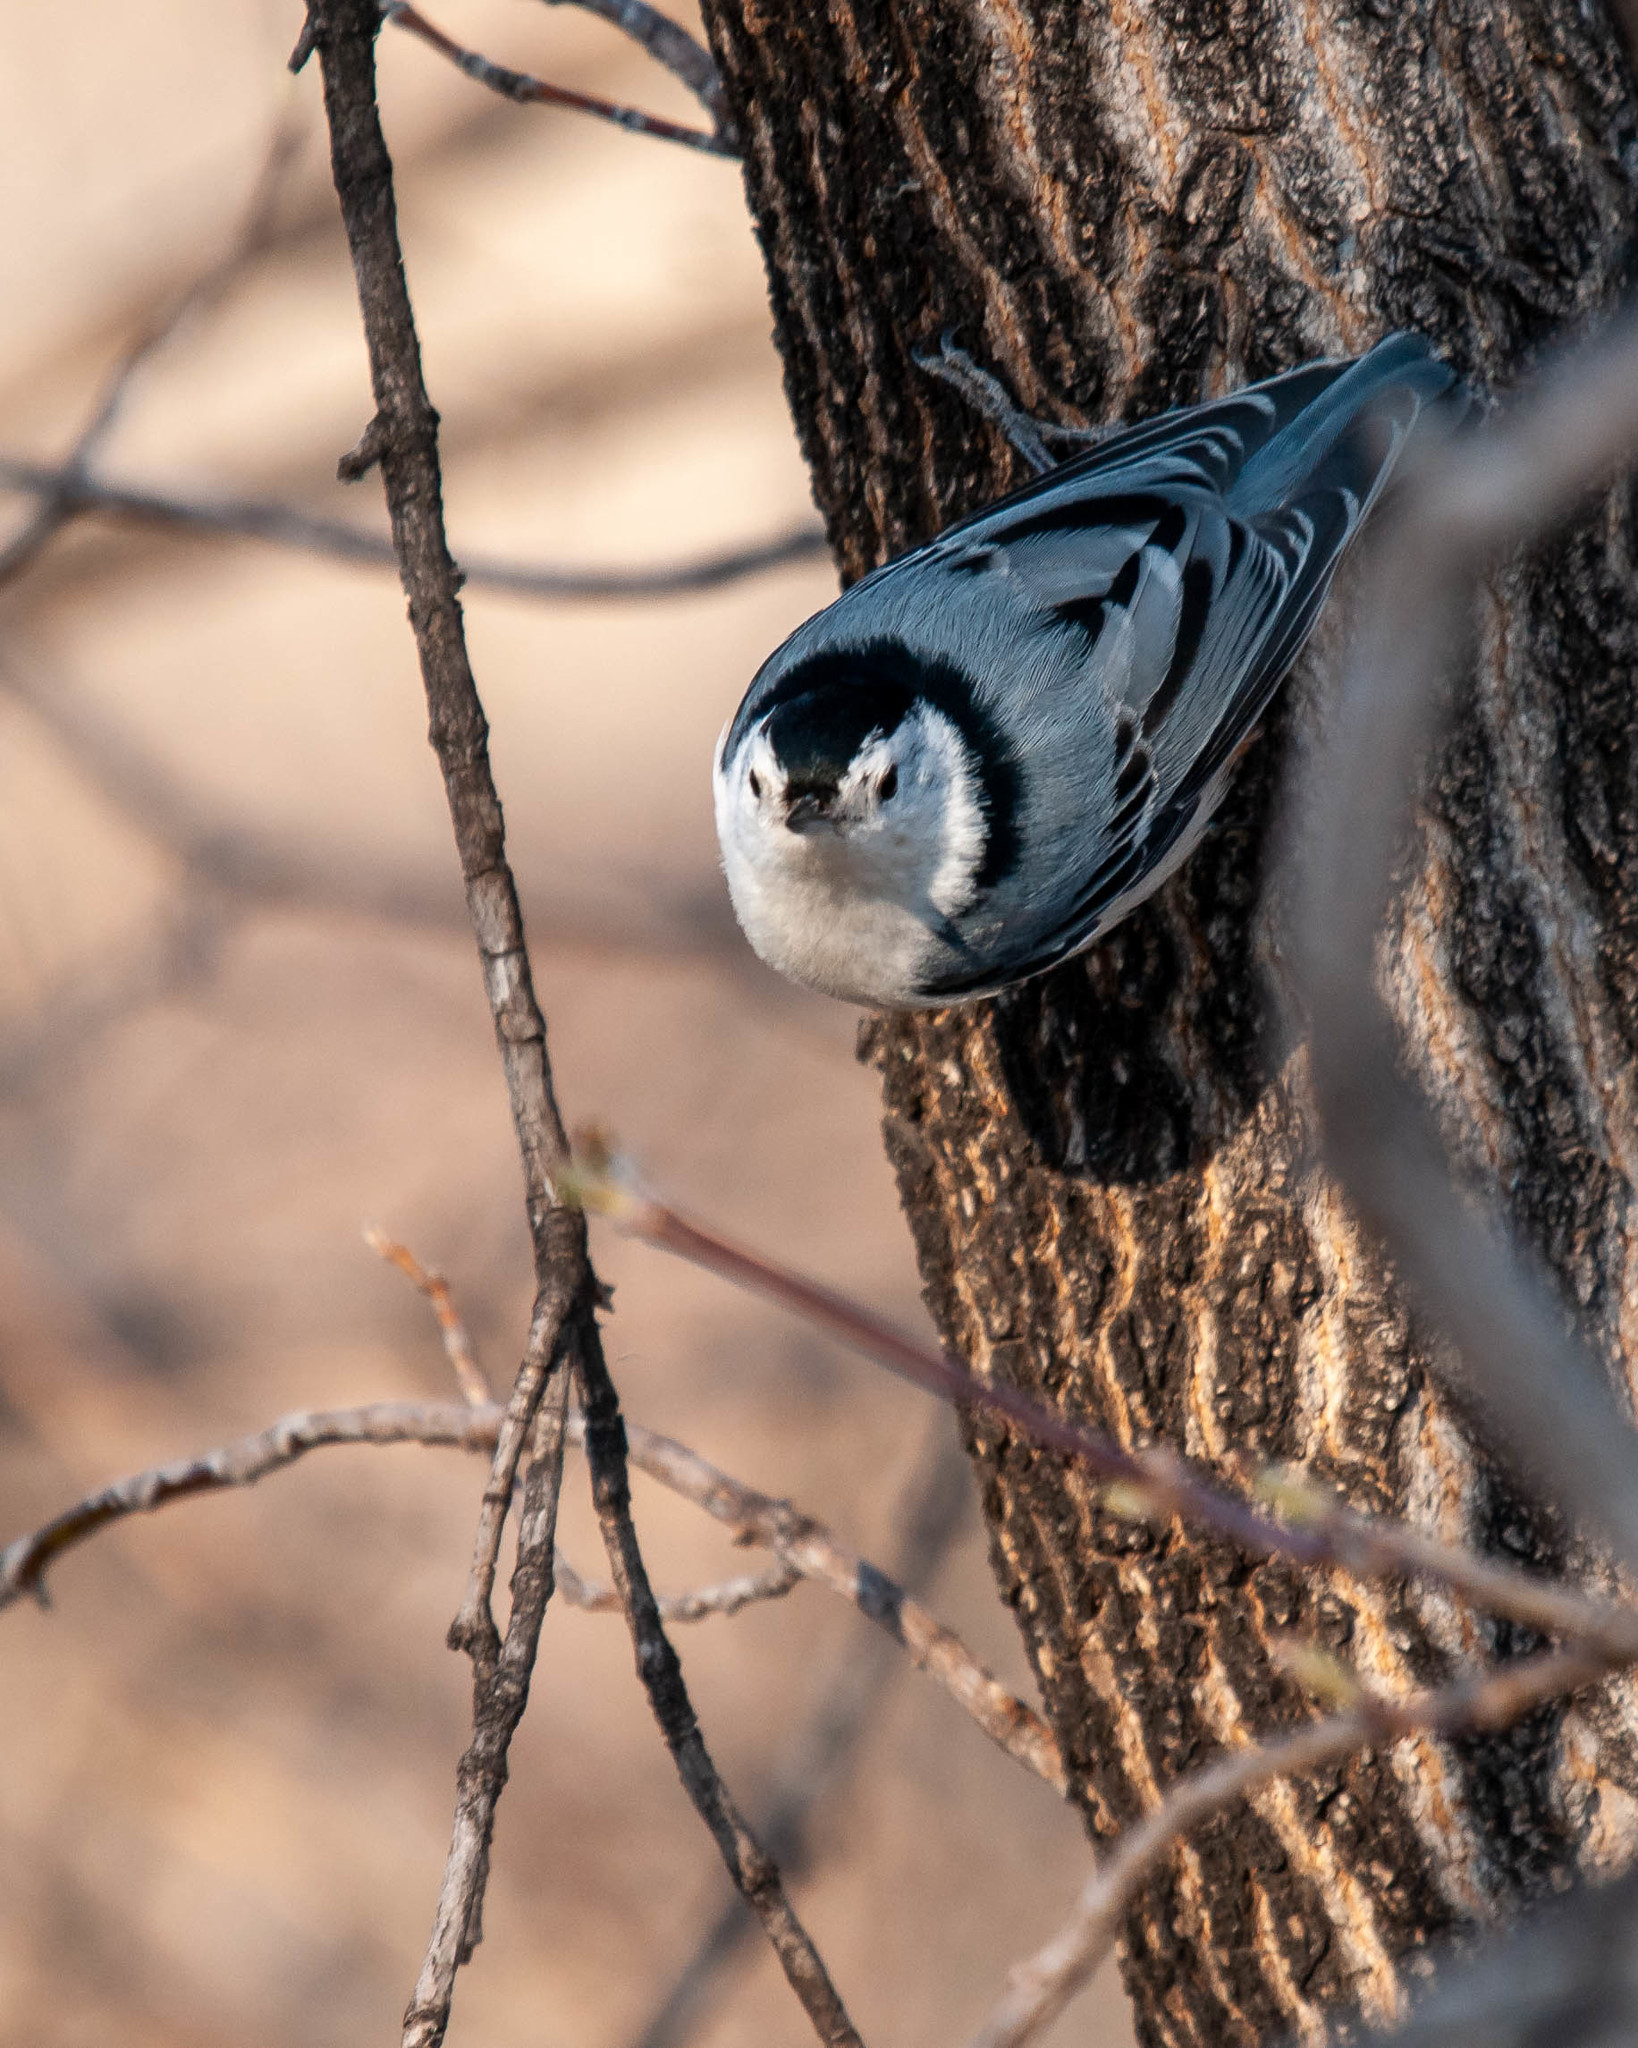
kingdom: Animalia
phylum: Chordata
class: Aves
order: Passeriformes
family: Sittidae
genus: Sitta
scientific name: Sitta carolinensis
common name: White-breasted nuthatch
